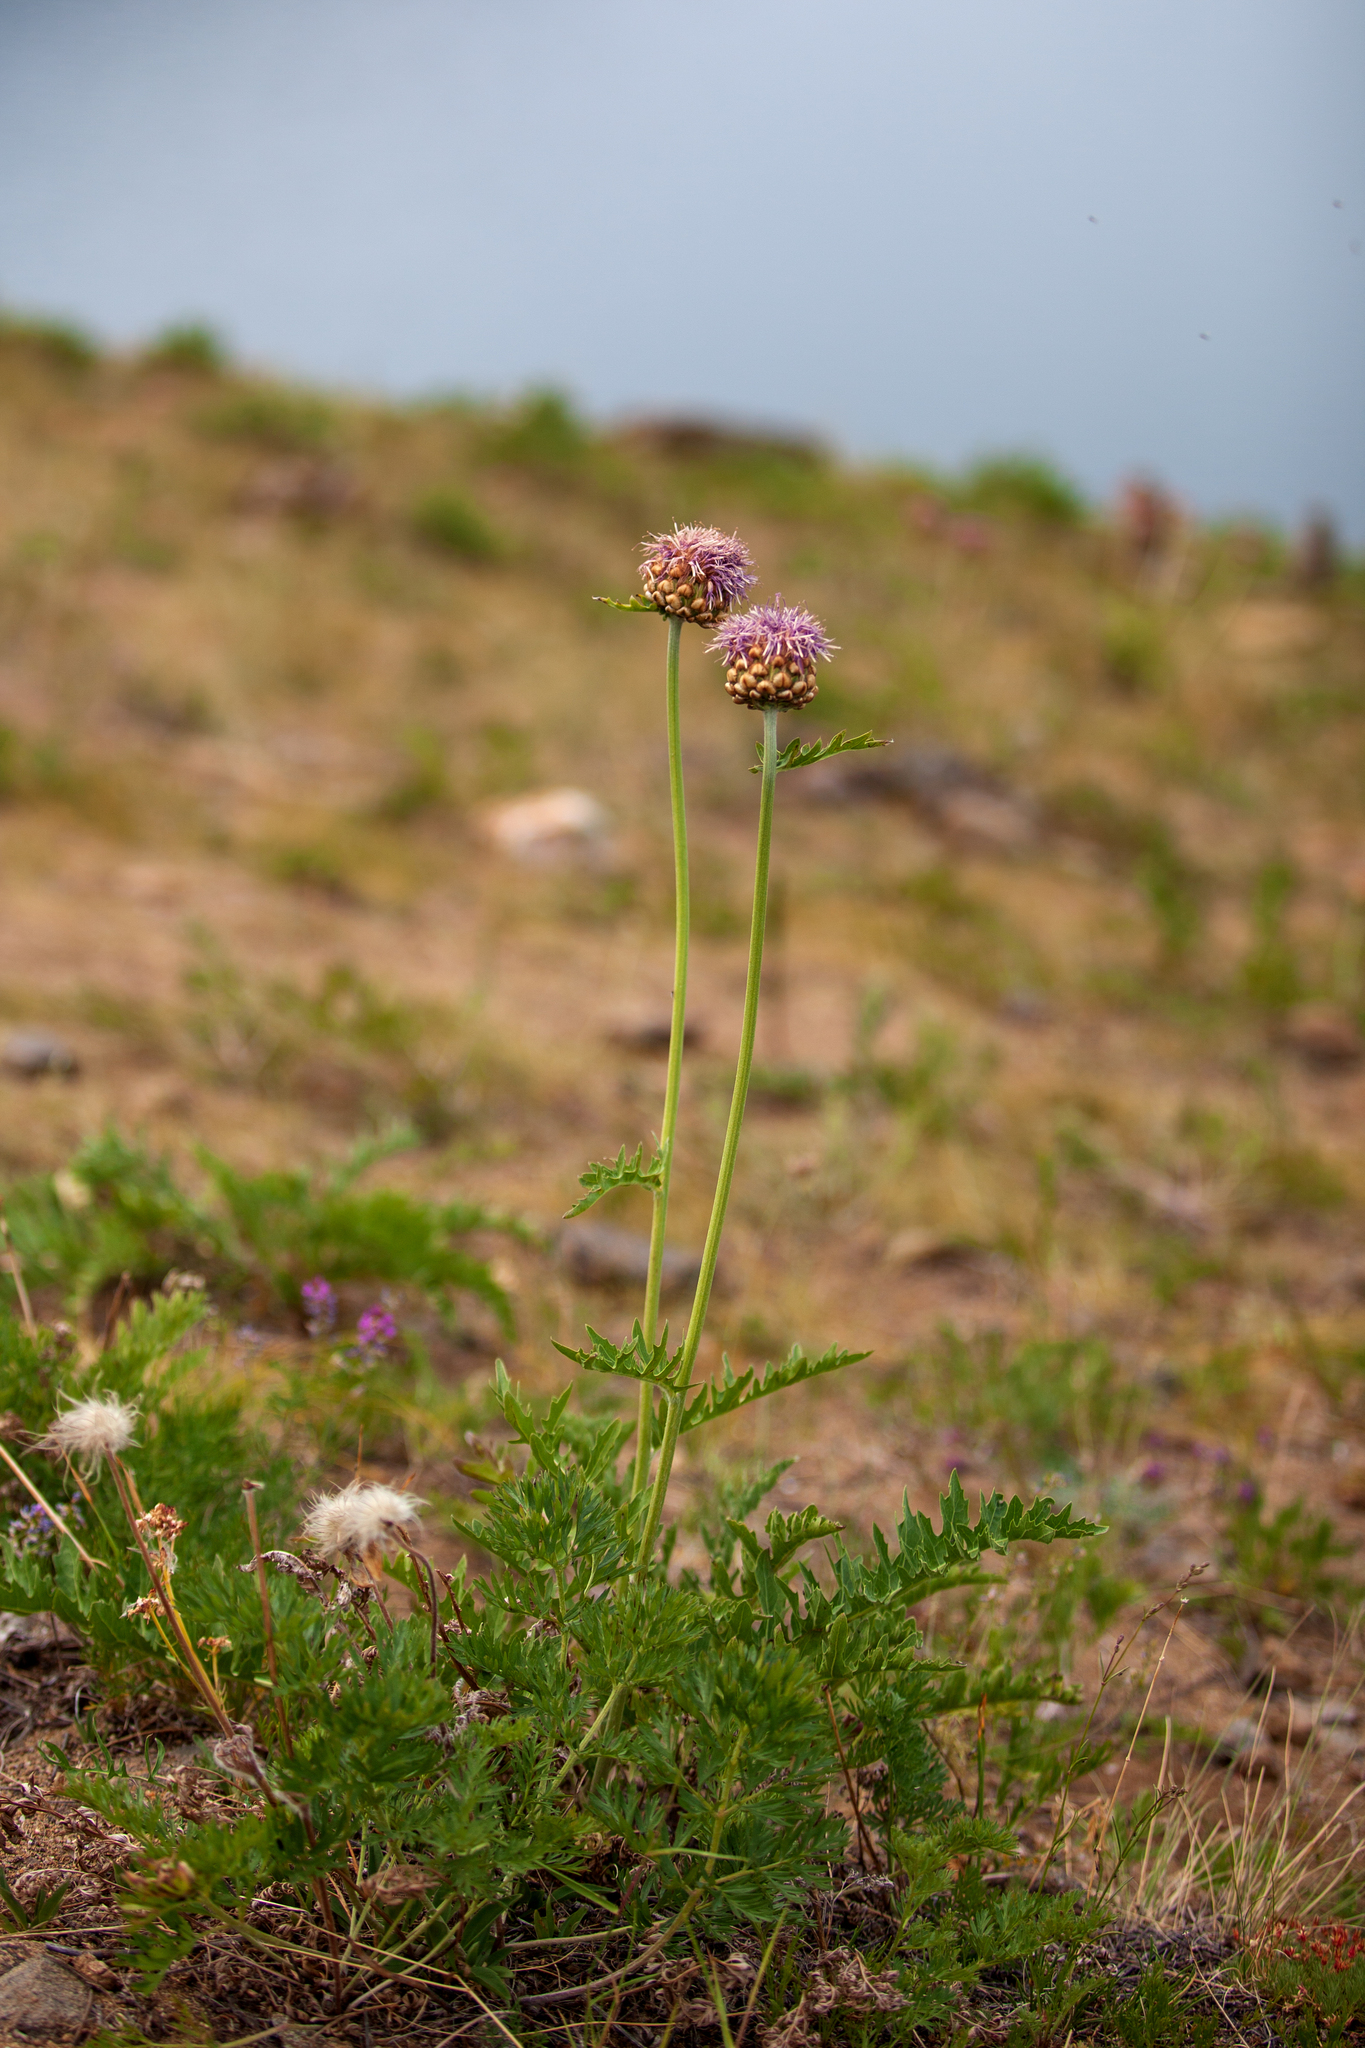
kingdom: Plantae
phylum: Tracheophyta
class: Magnoliopsida
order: Asterales
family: Asteraceae
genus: Leuzea
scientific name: Leuzea uniflora
